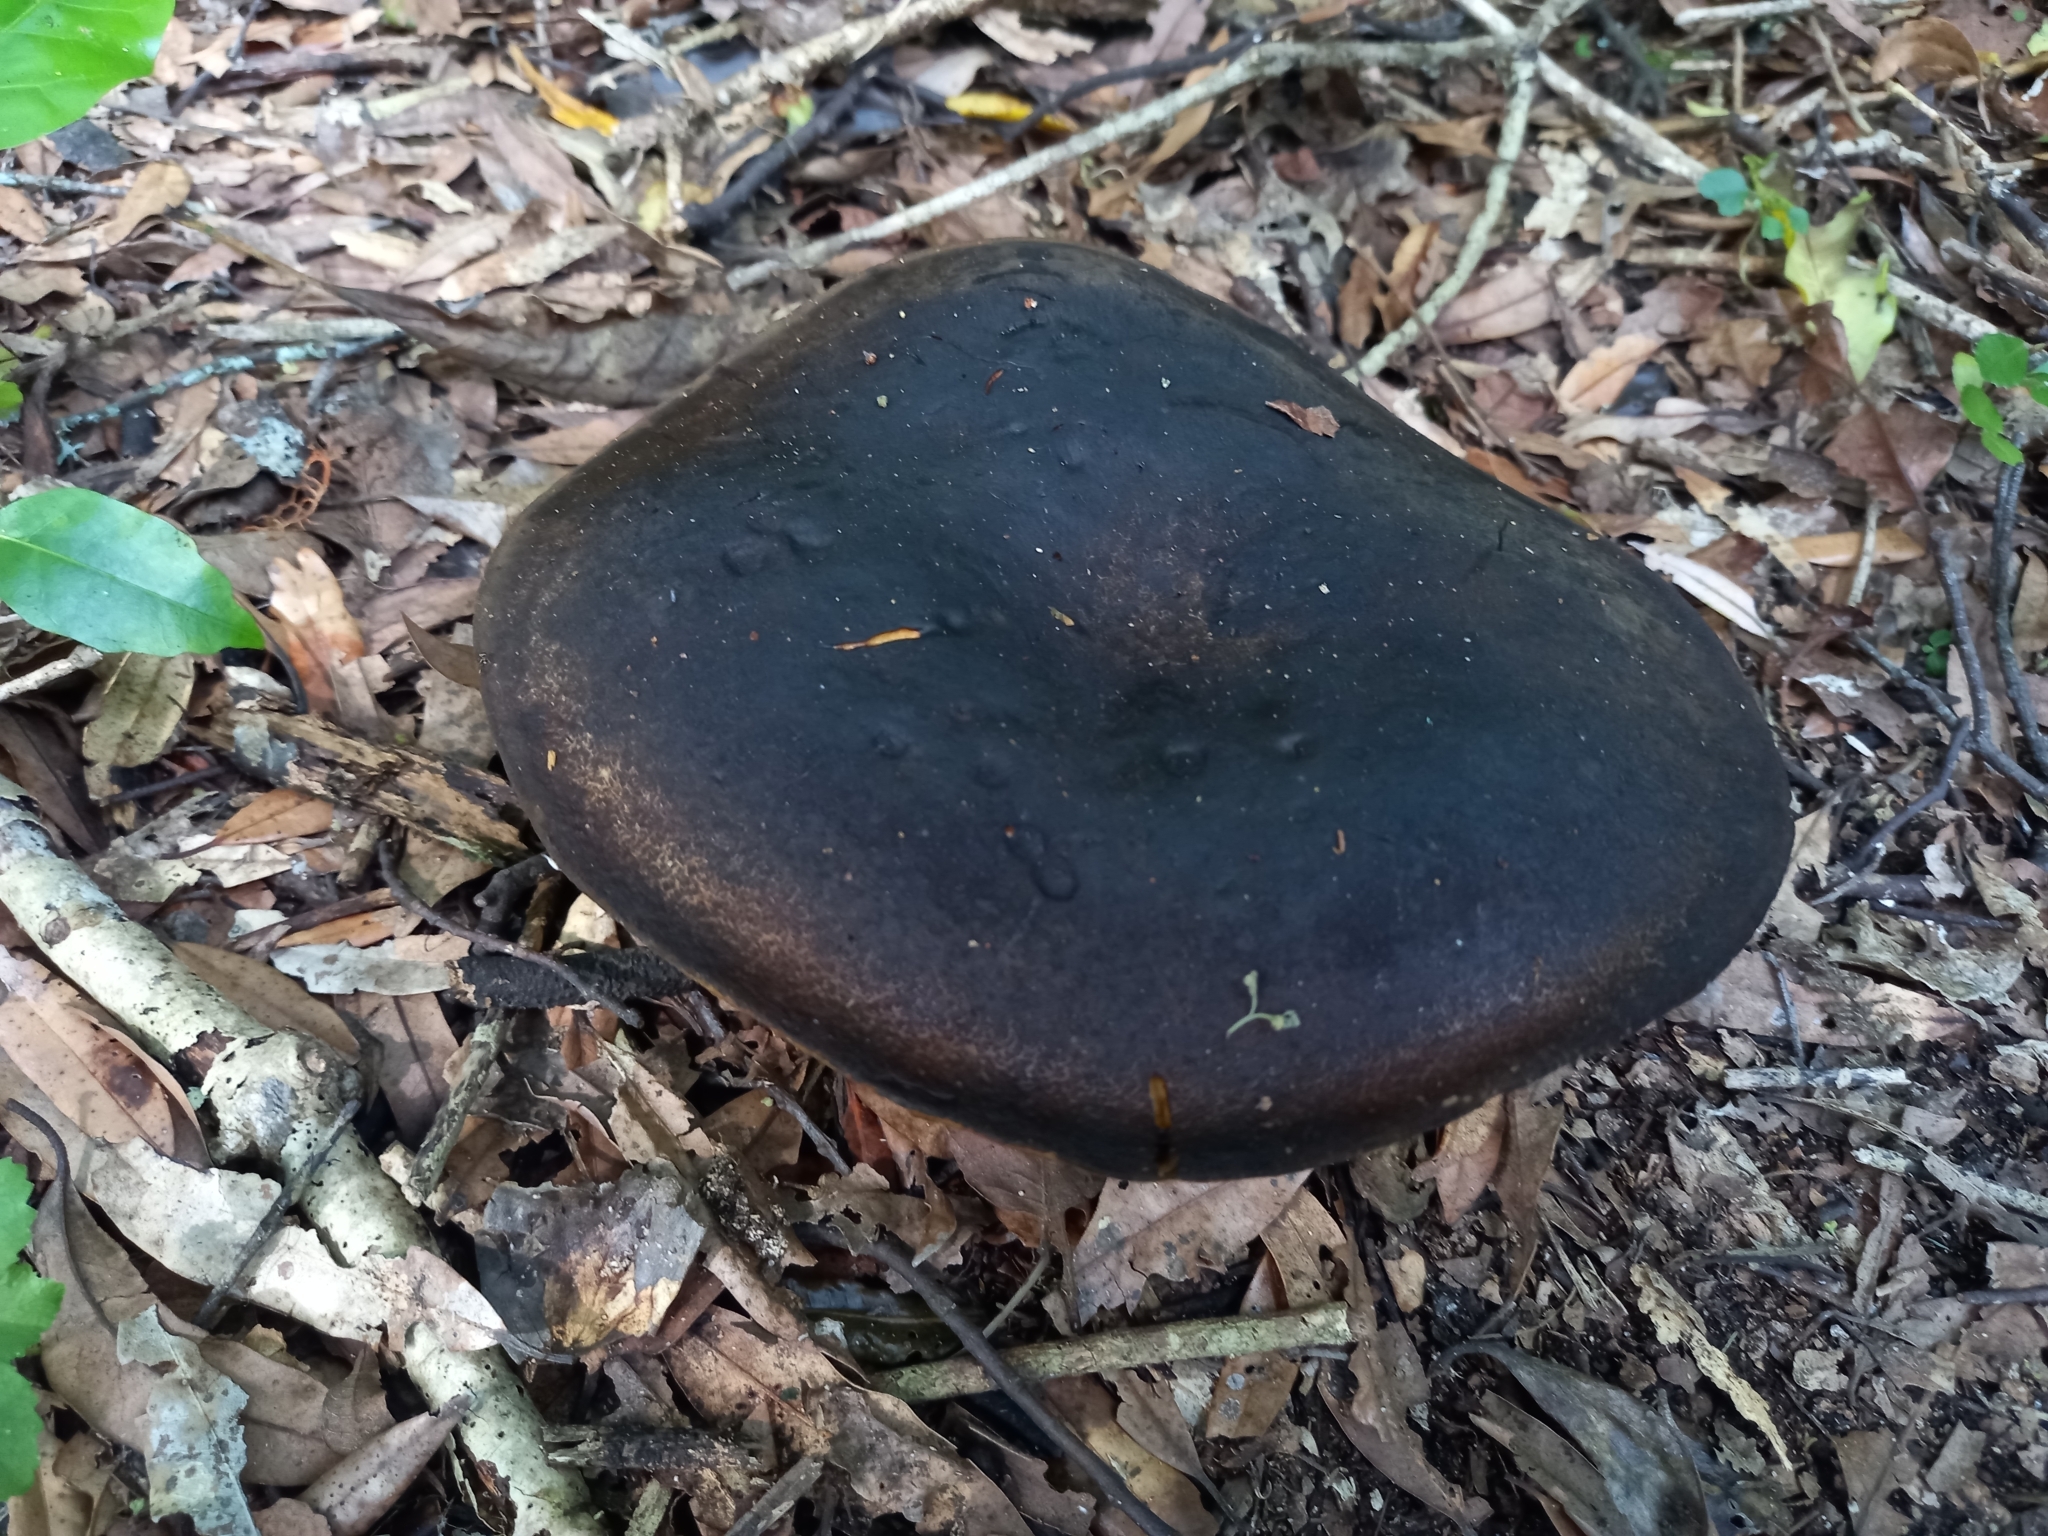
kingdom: Fungi
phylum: Basidiomycota
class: Agaricomycetes
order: Boletales
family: Boletinellaceae
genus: Phlebopus
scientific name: Phlebopus marginatus
